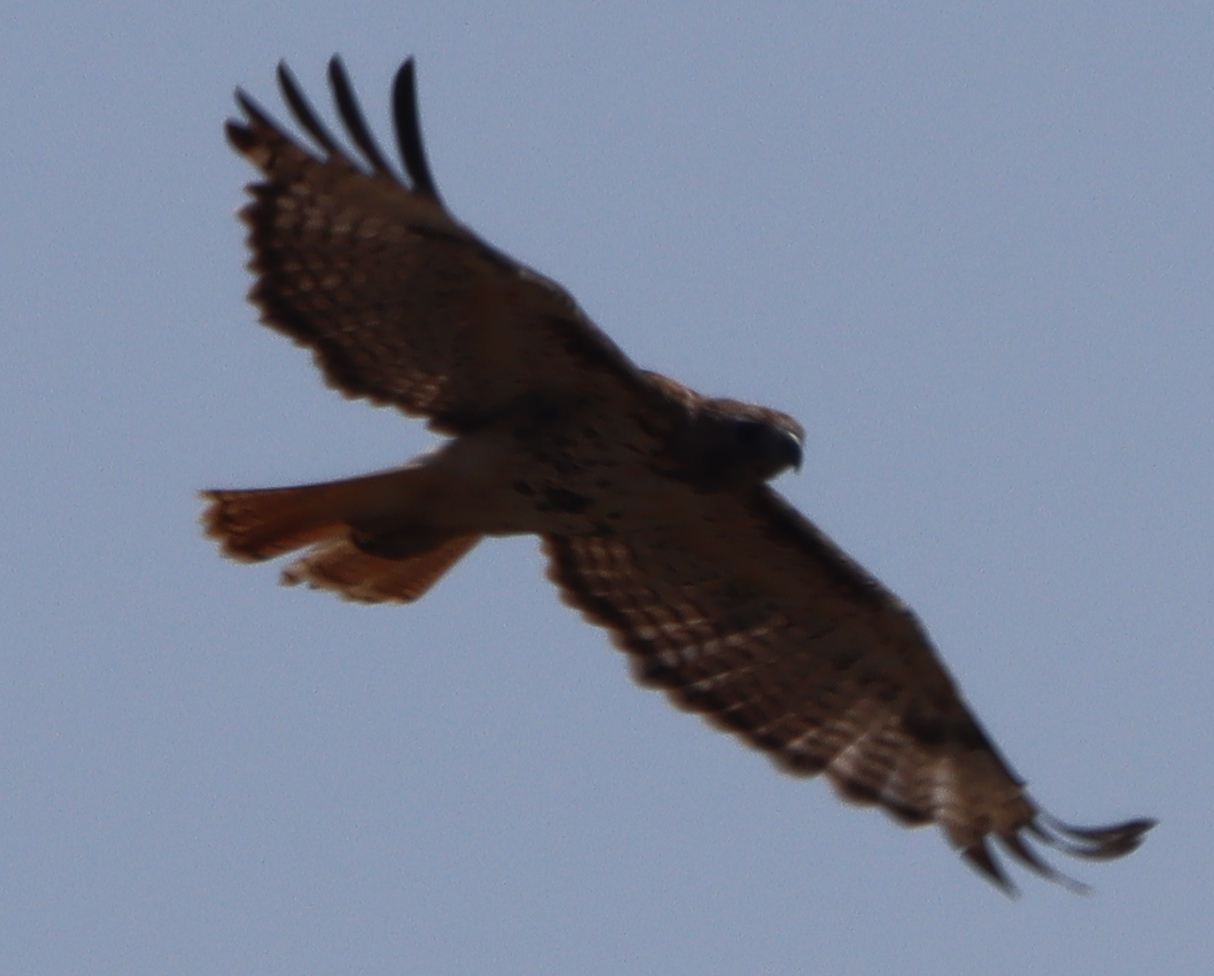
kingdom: Animalia
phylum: Chordata
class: Aves
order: Accipitriformes
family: Accipitridae
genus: Buteo
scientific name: Buteo jamaicensis
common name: Red-tailed hawk
